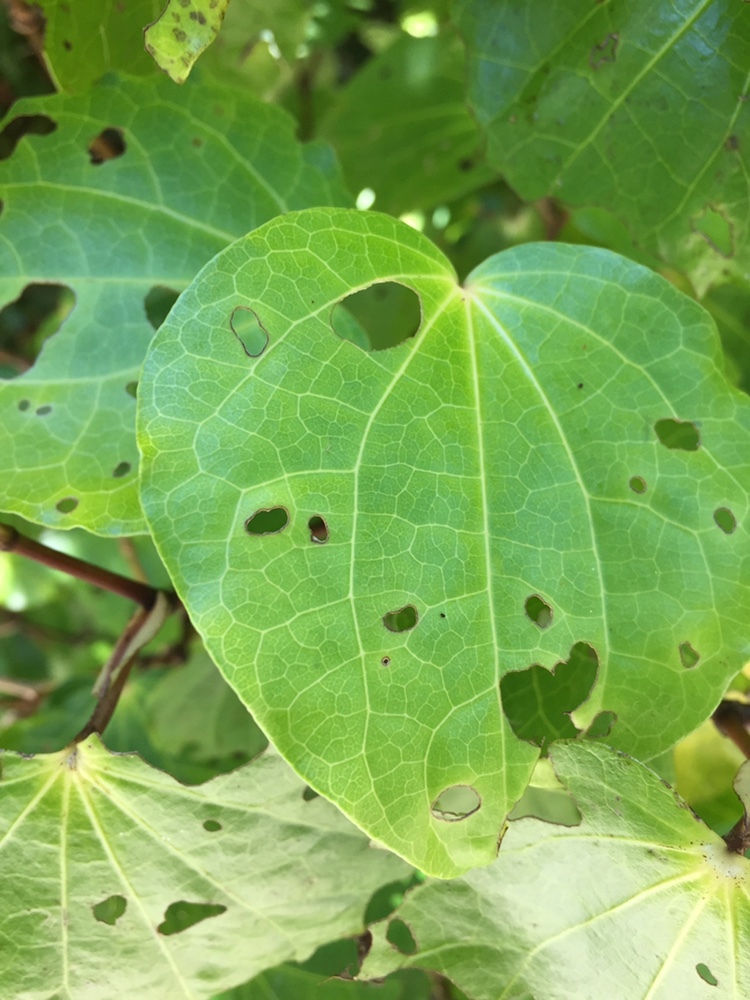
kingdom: Plantae
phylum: Tracheophyta
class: Magnoliopsida
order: Piperales
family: Piperaceae
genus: Macropiper
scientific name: Macropiper excelsum
